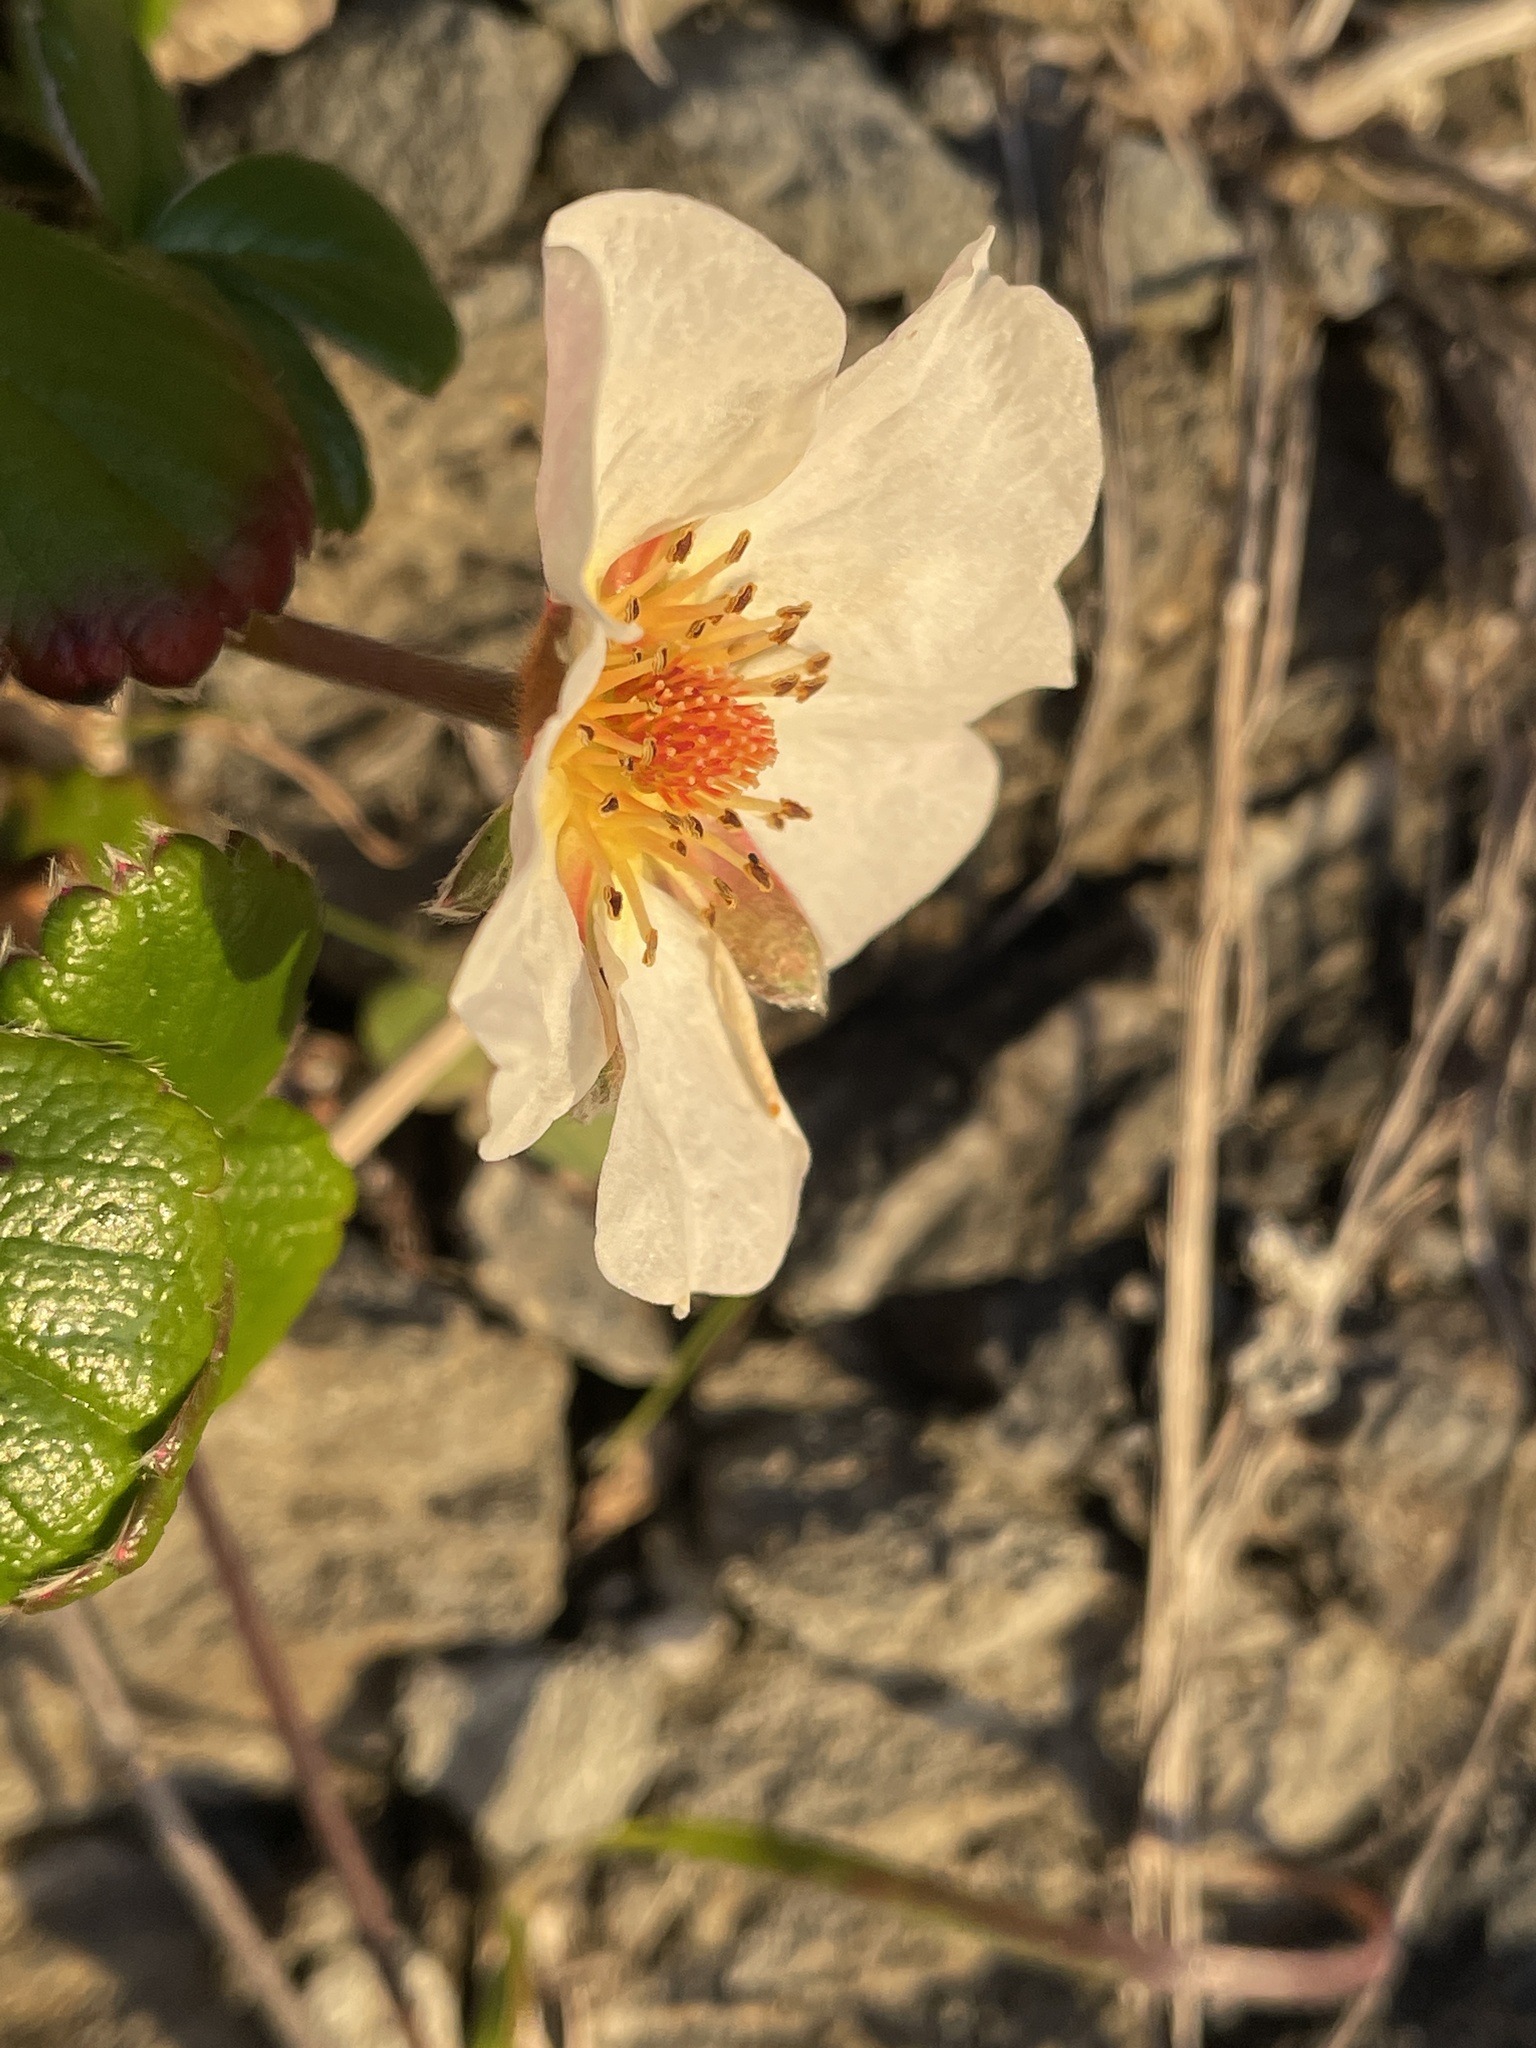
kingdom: Plantae
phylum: Tracheophyta
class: Magnoliopsida
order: Rosales
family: Rosaceae
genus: Fragaria
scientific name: Fragaria chiloensis
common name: Beach strawberry
